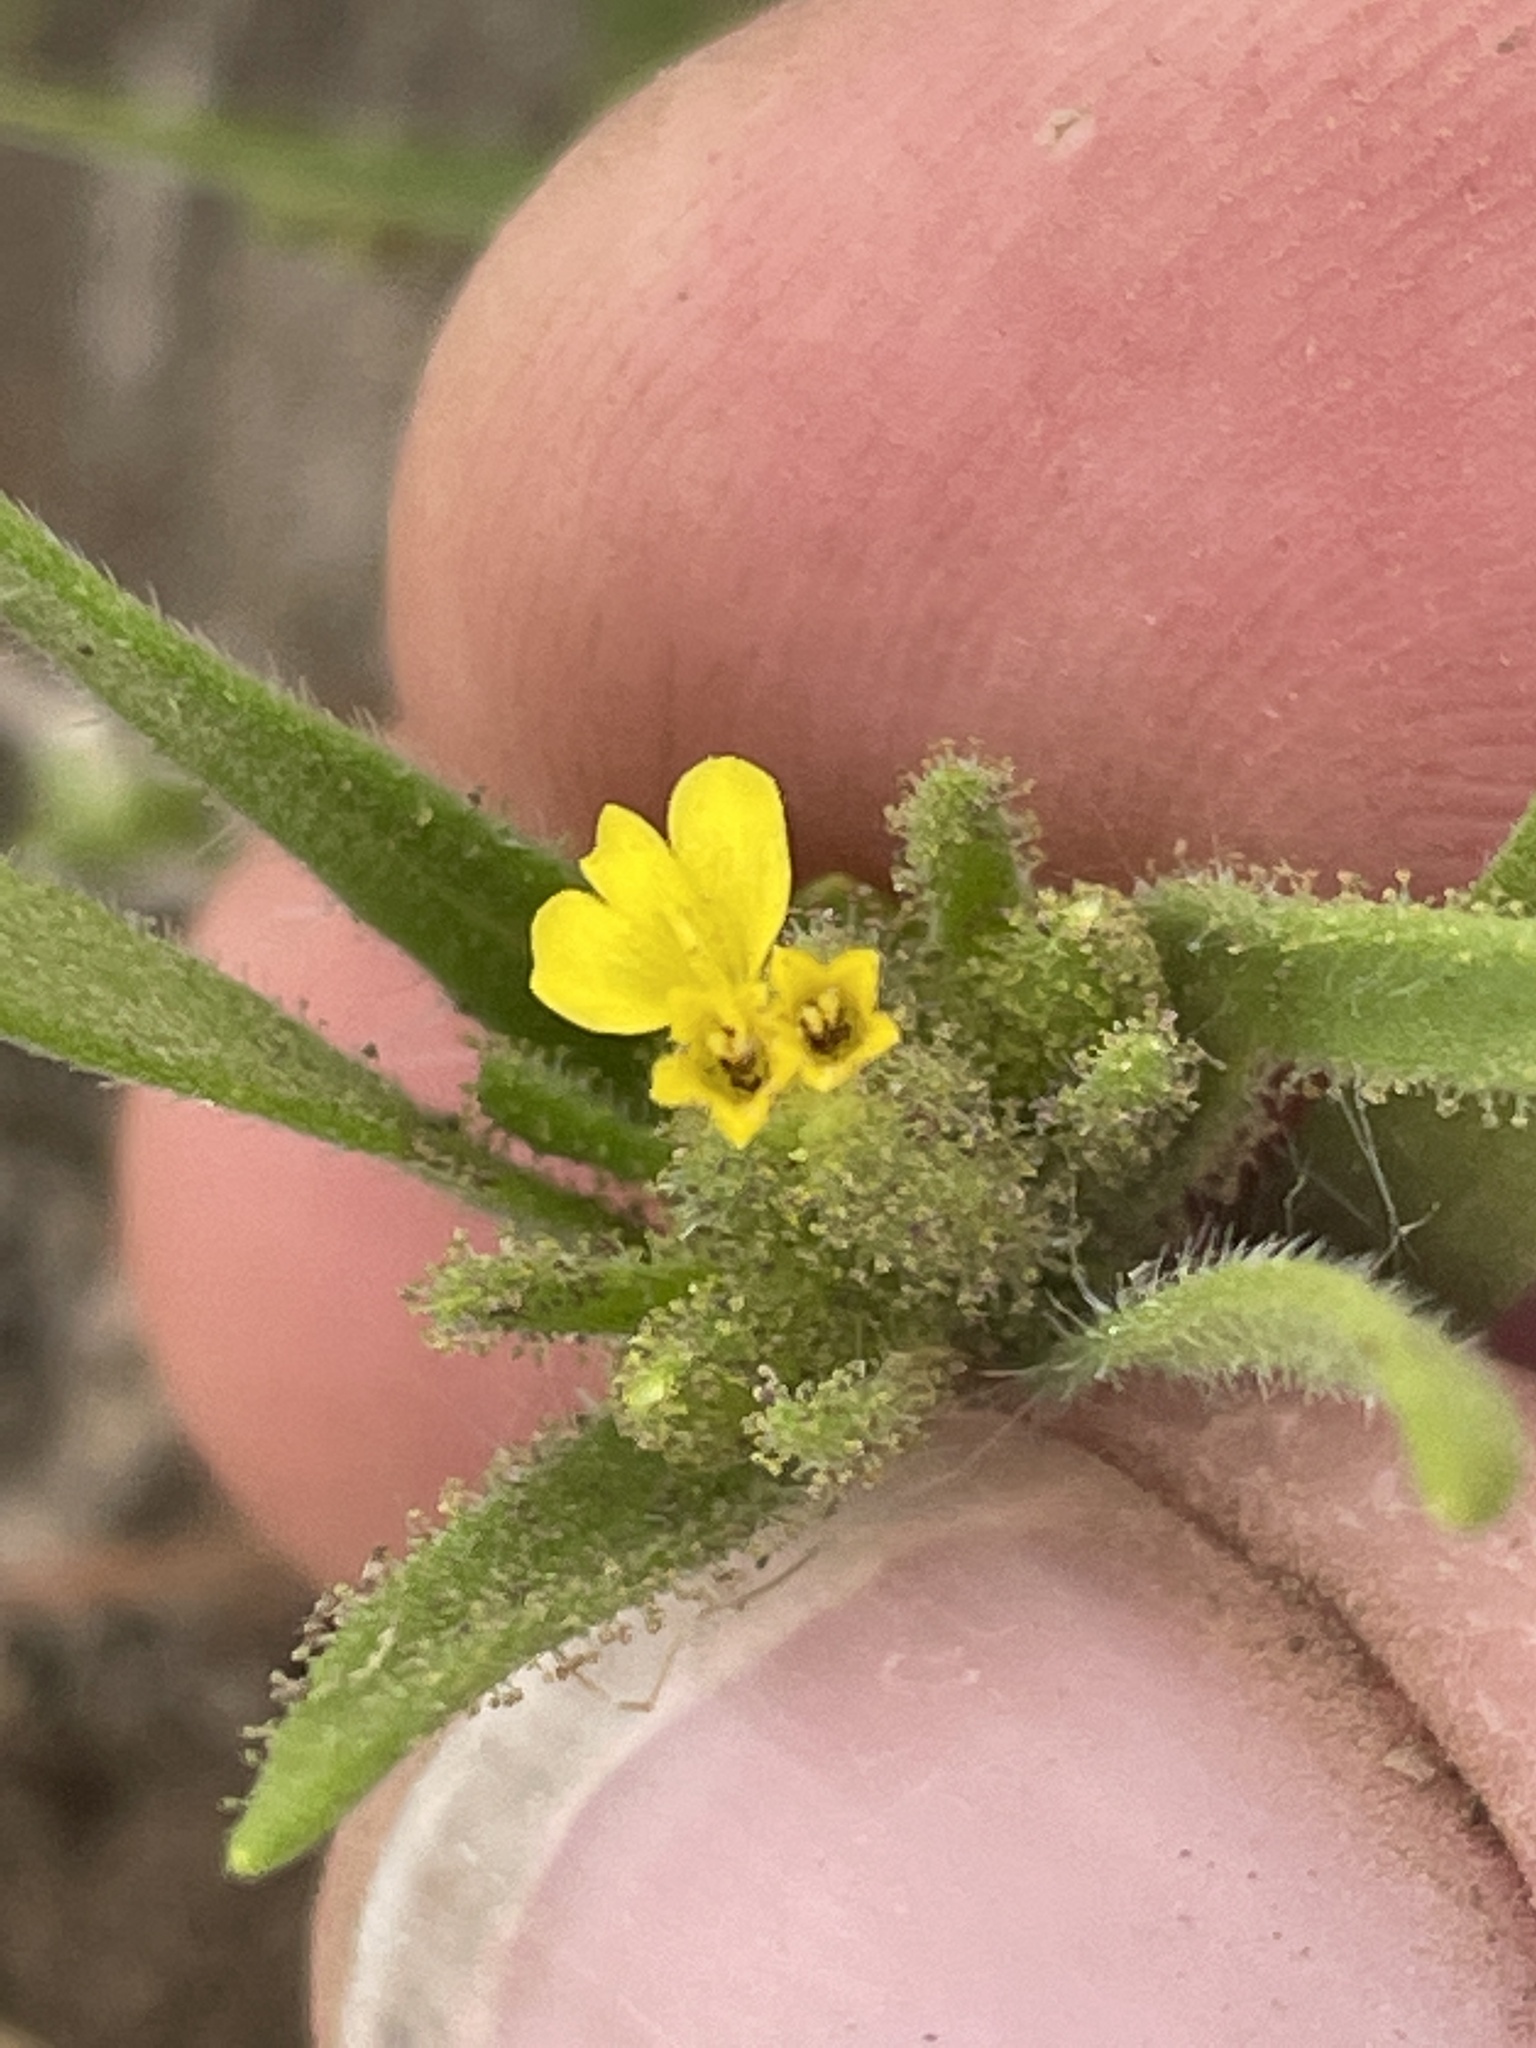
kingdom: Plantae
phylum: Tracheophyta
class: Magnoliopsida
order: Asterales
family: Asteraceae
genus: Madia
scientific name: Madia glomerata
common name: Mountain tarweed
